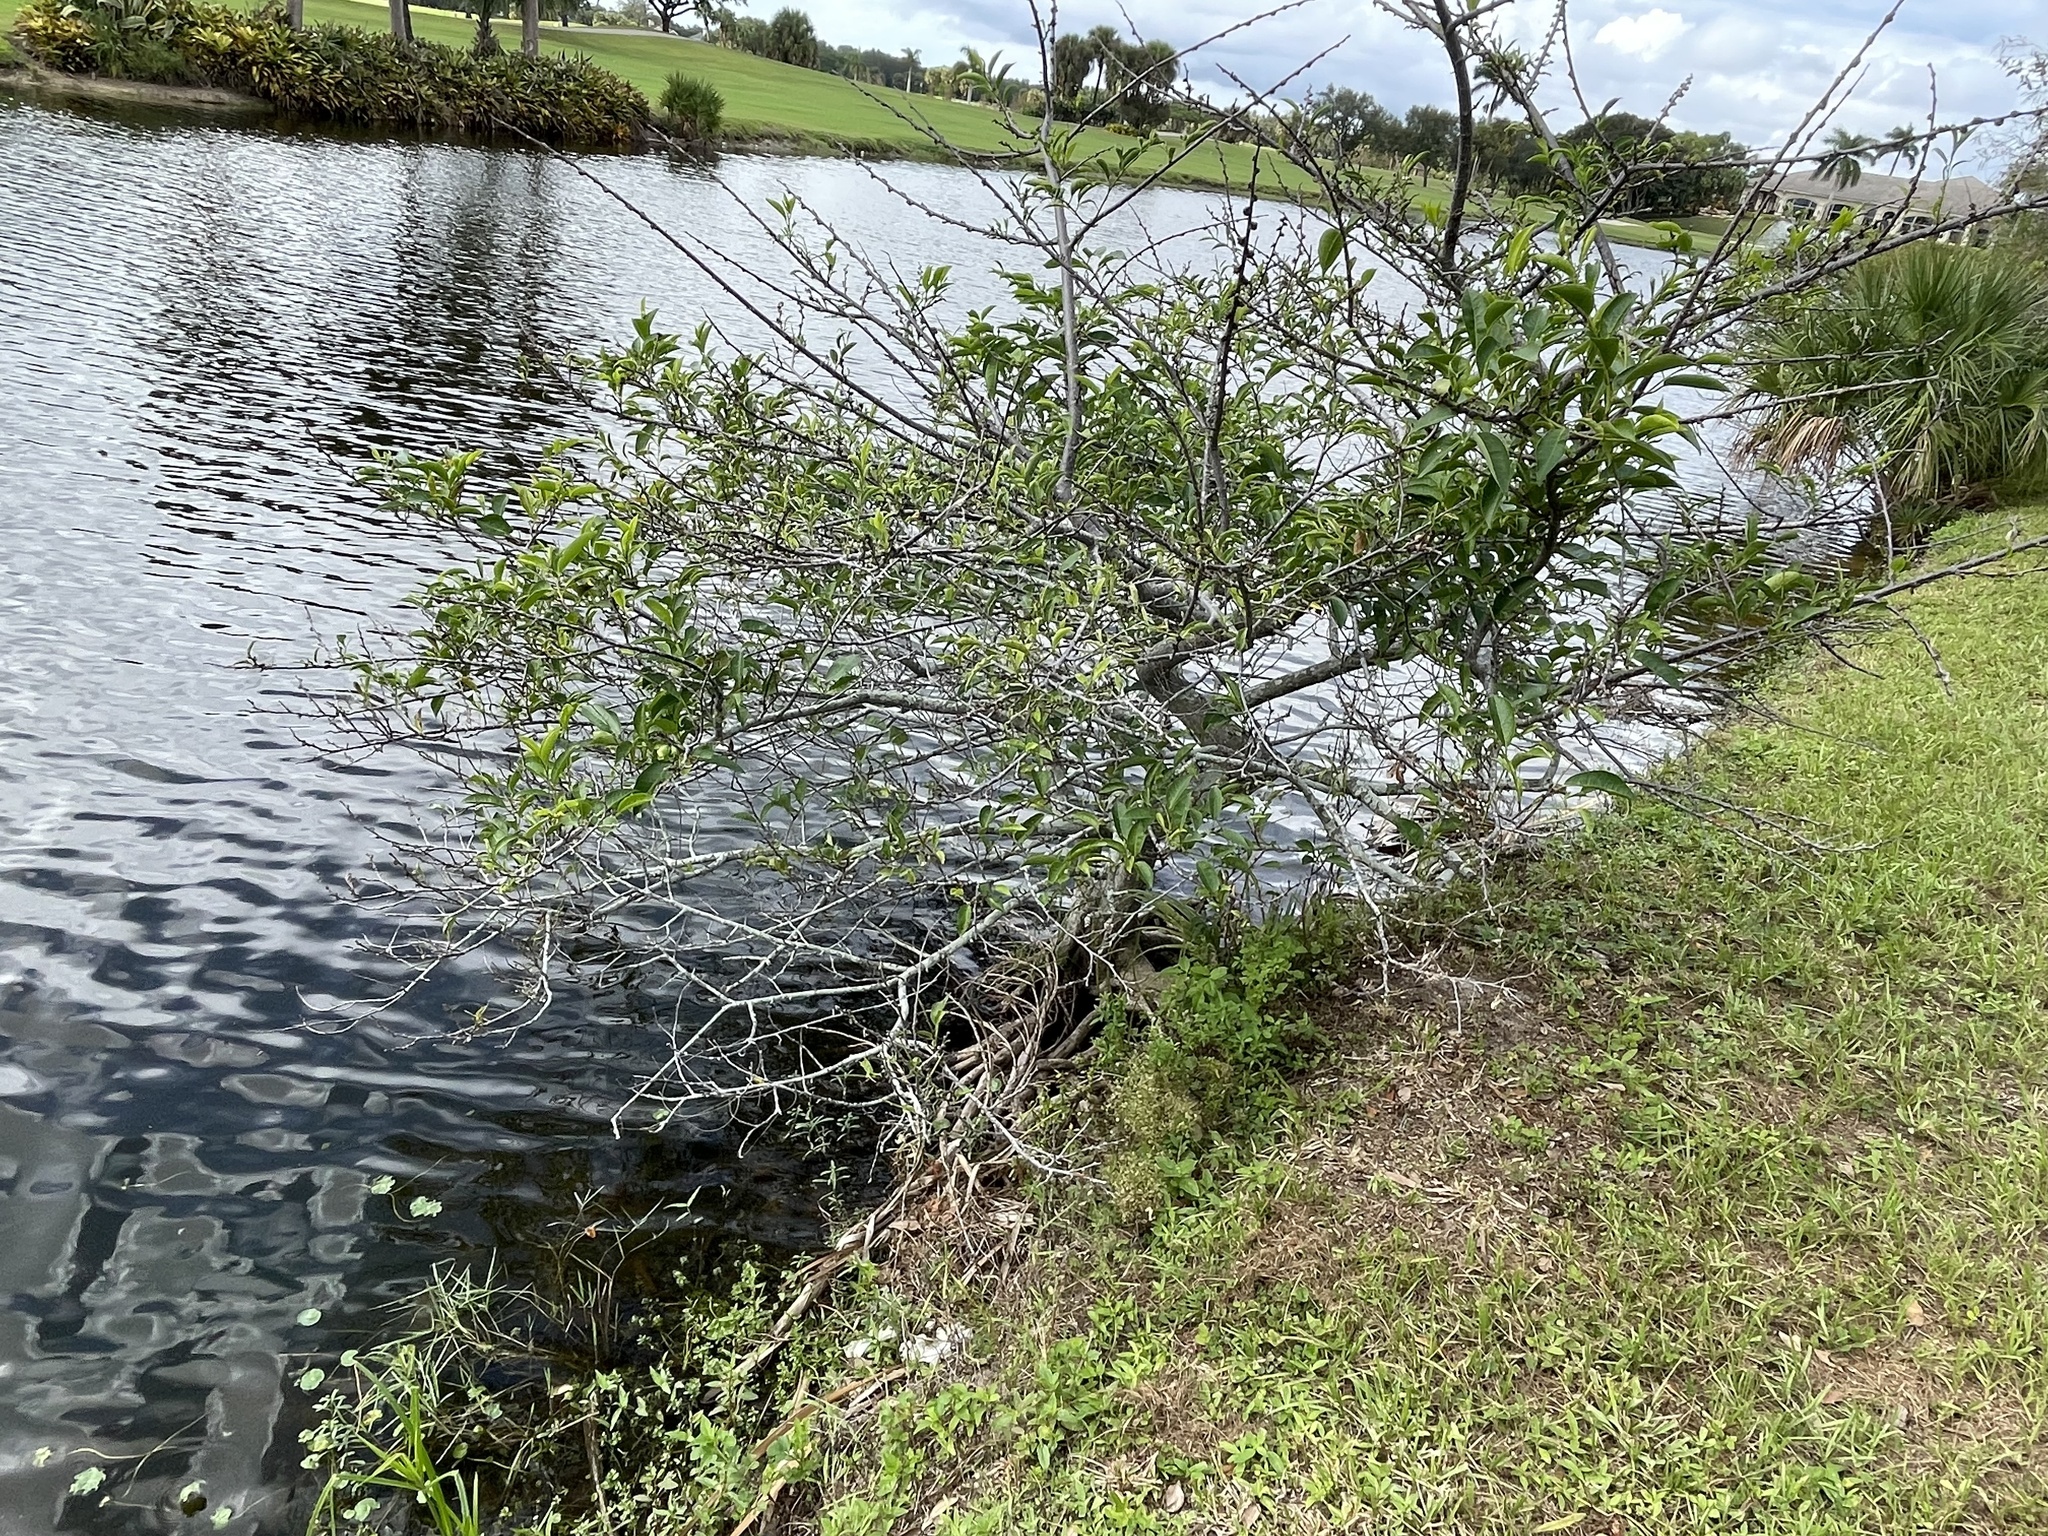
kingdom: Plantae
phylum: Tracheophyta
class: Magnoliopsida
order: Magnoliales
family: Annonaceae
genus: Annona
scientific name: Annona glabra
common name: Monkey apple
